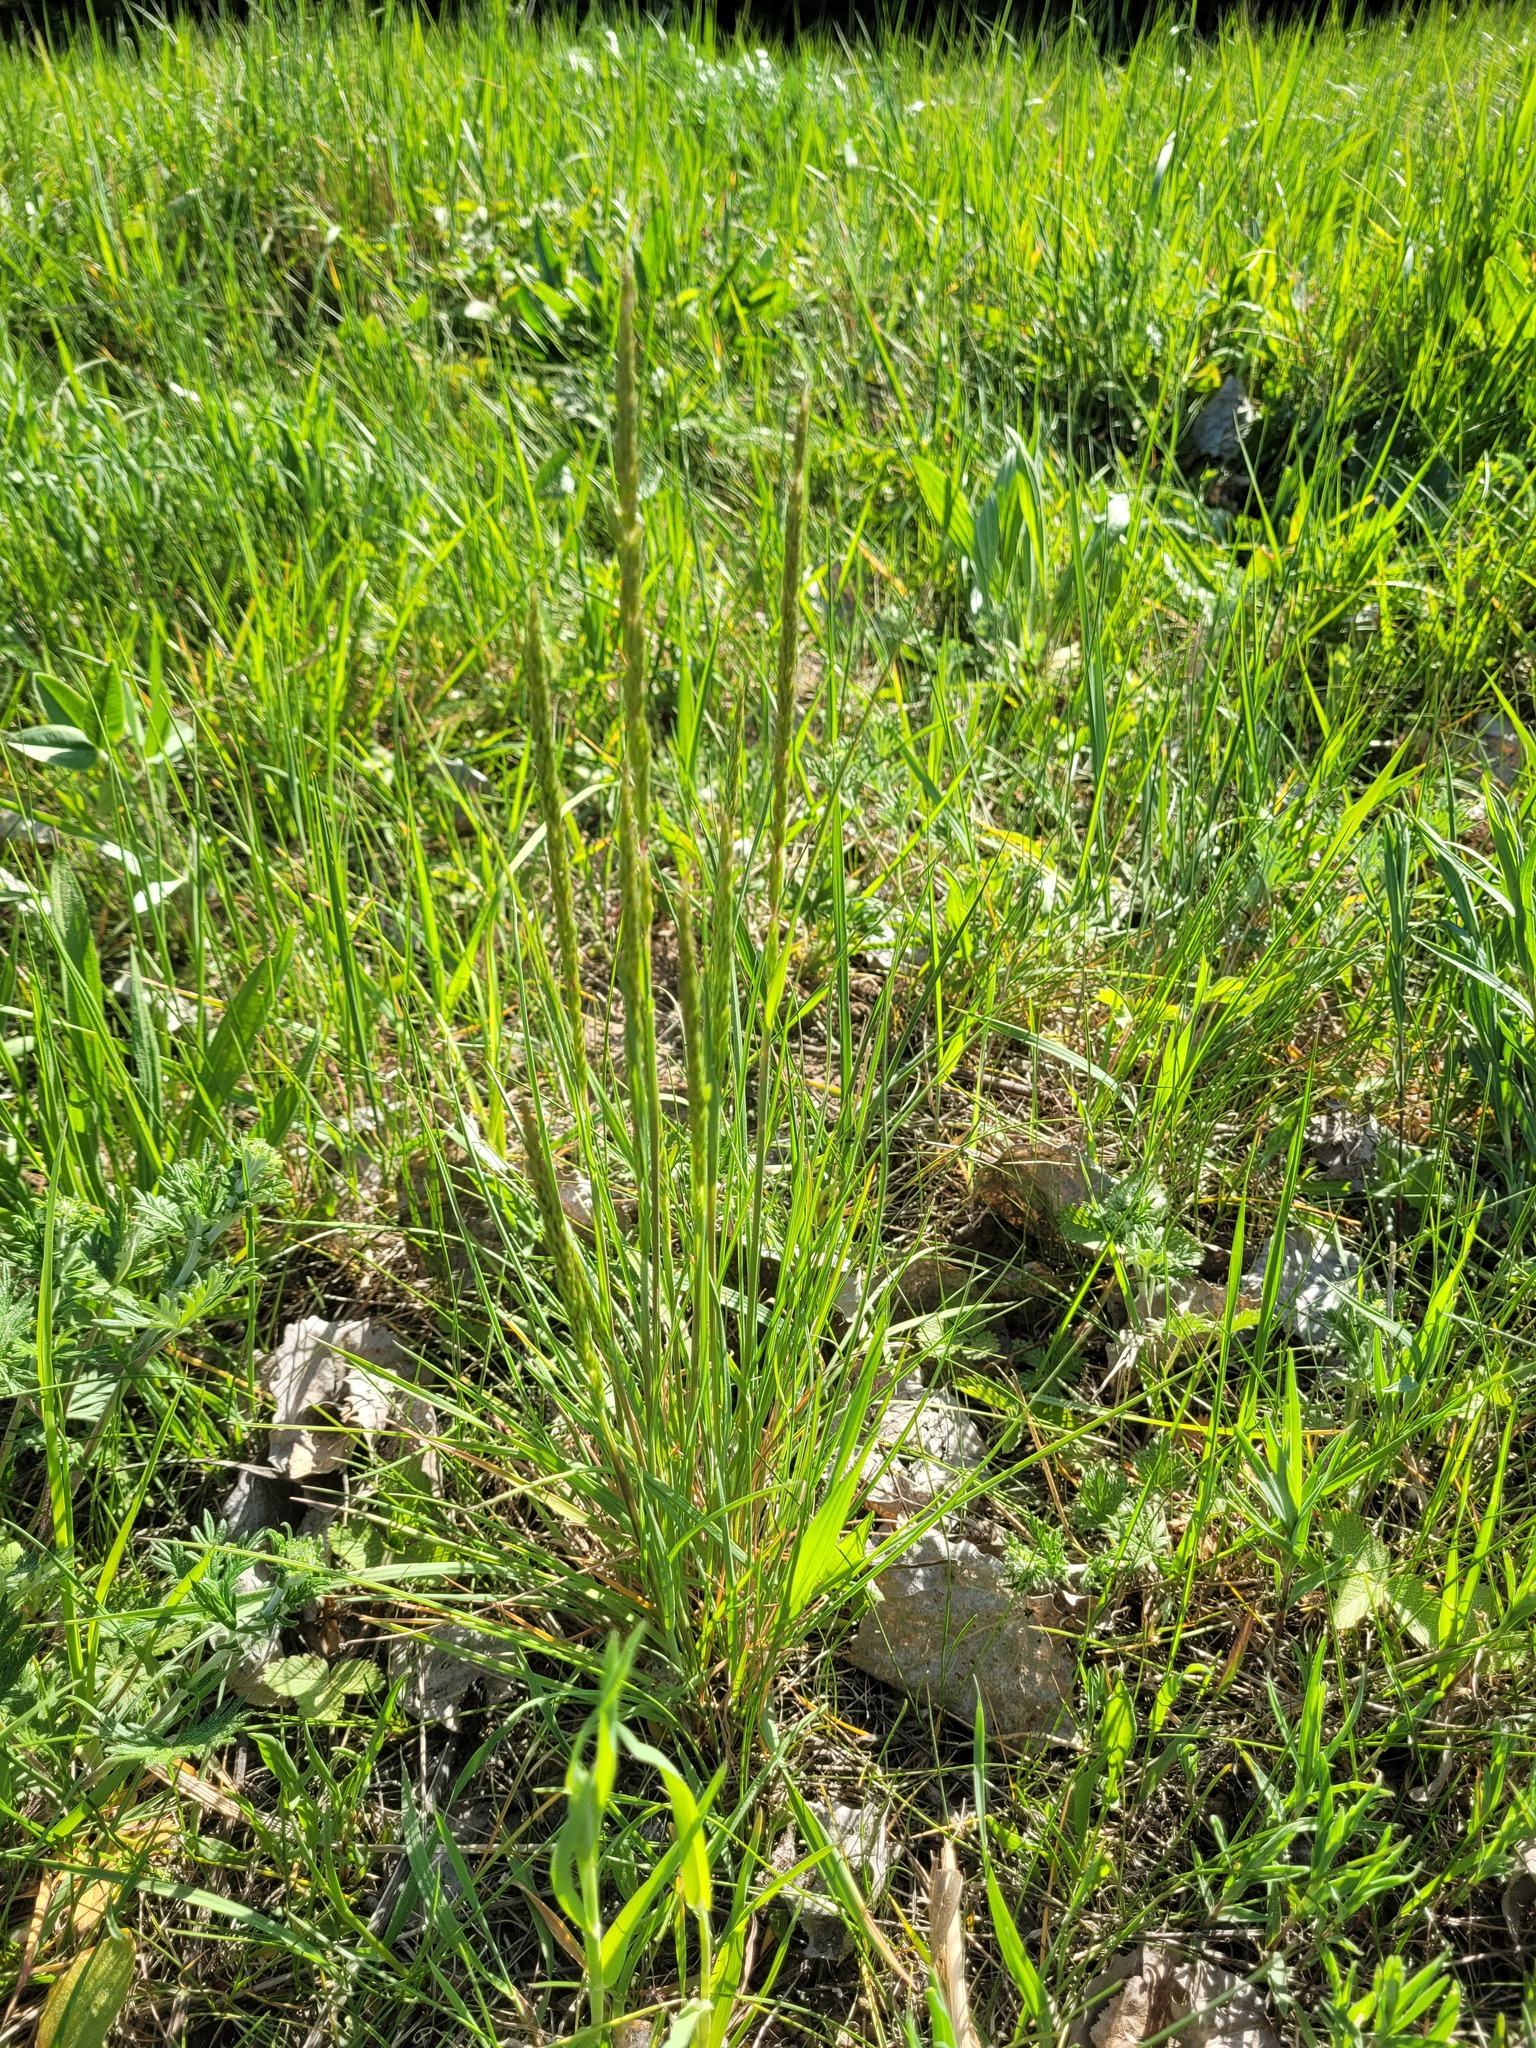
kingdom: Plantae
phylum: Tracheophyta
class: Liliopsida
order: Poales
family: Poaceae
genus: Koeleria
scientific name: Koeleria macrantha
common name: Crested hair-grass
